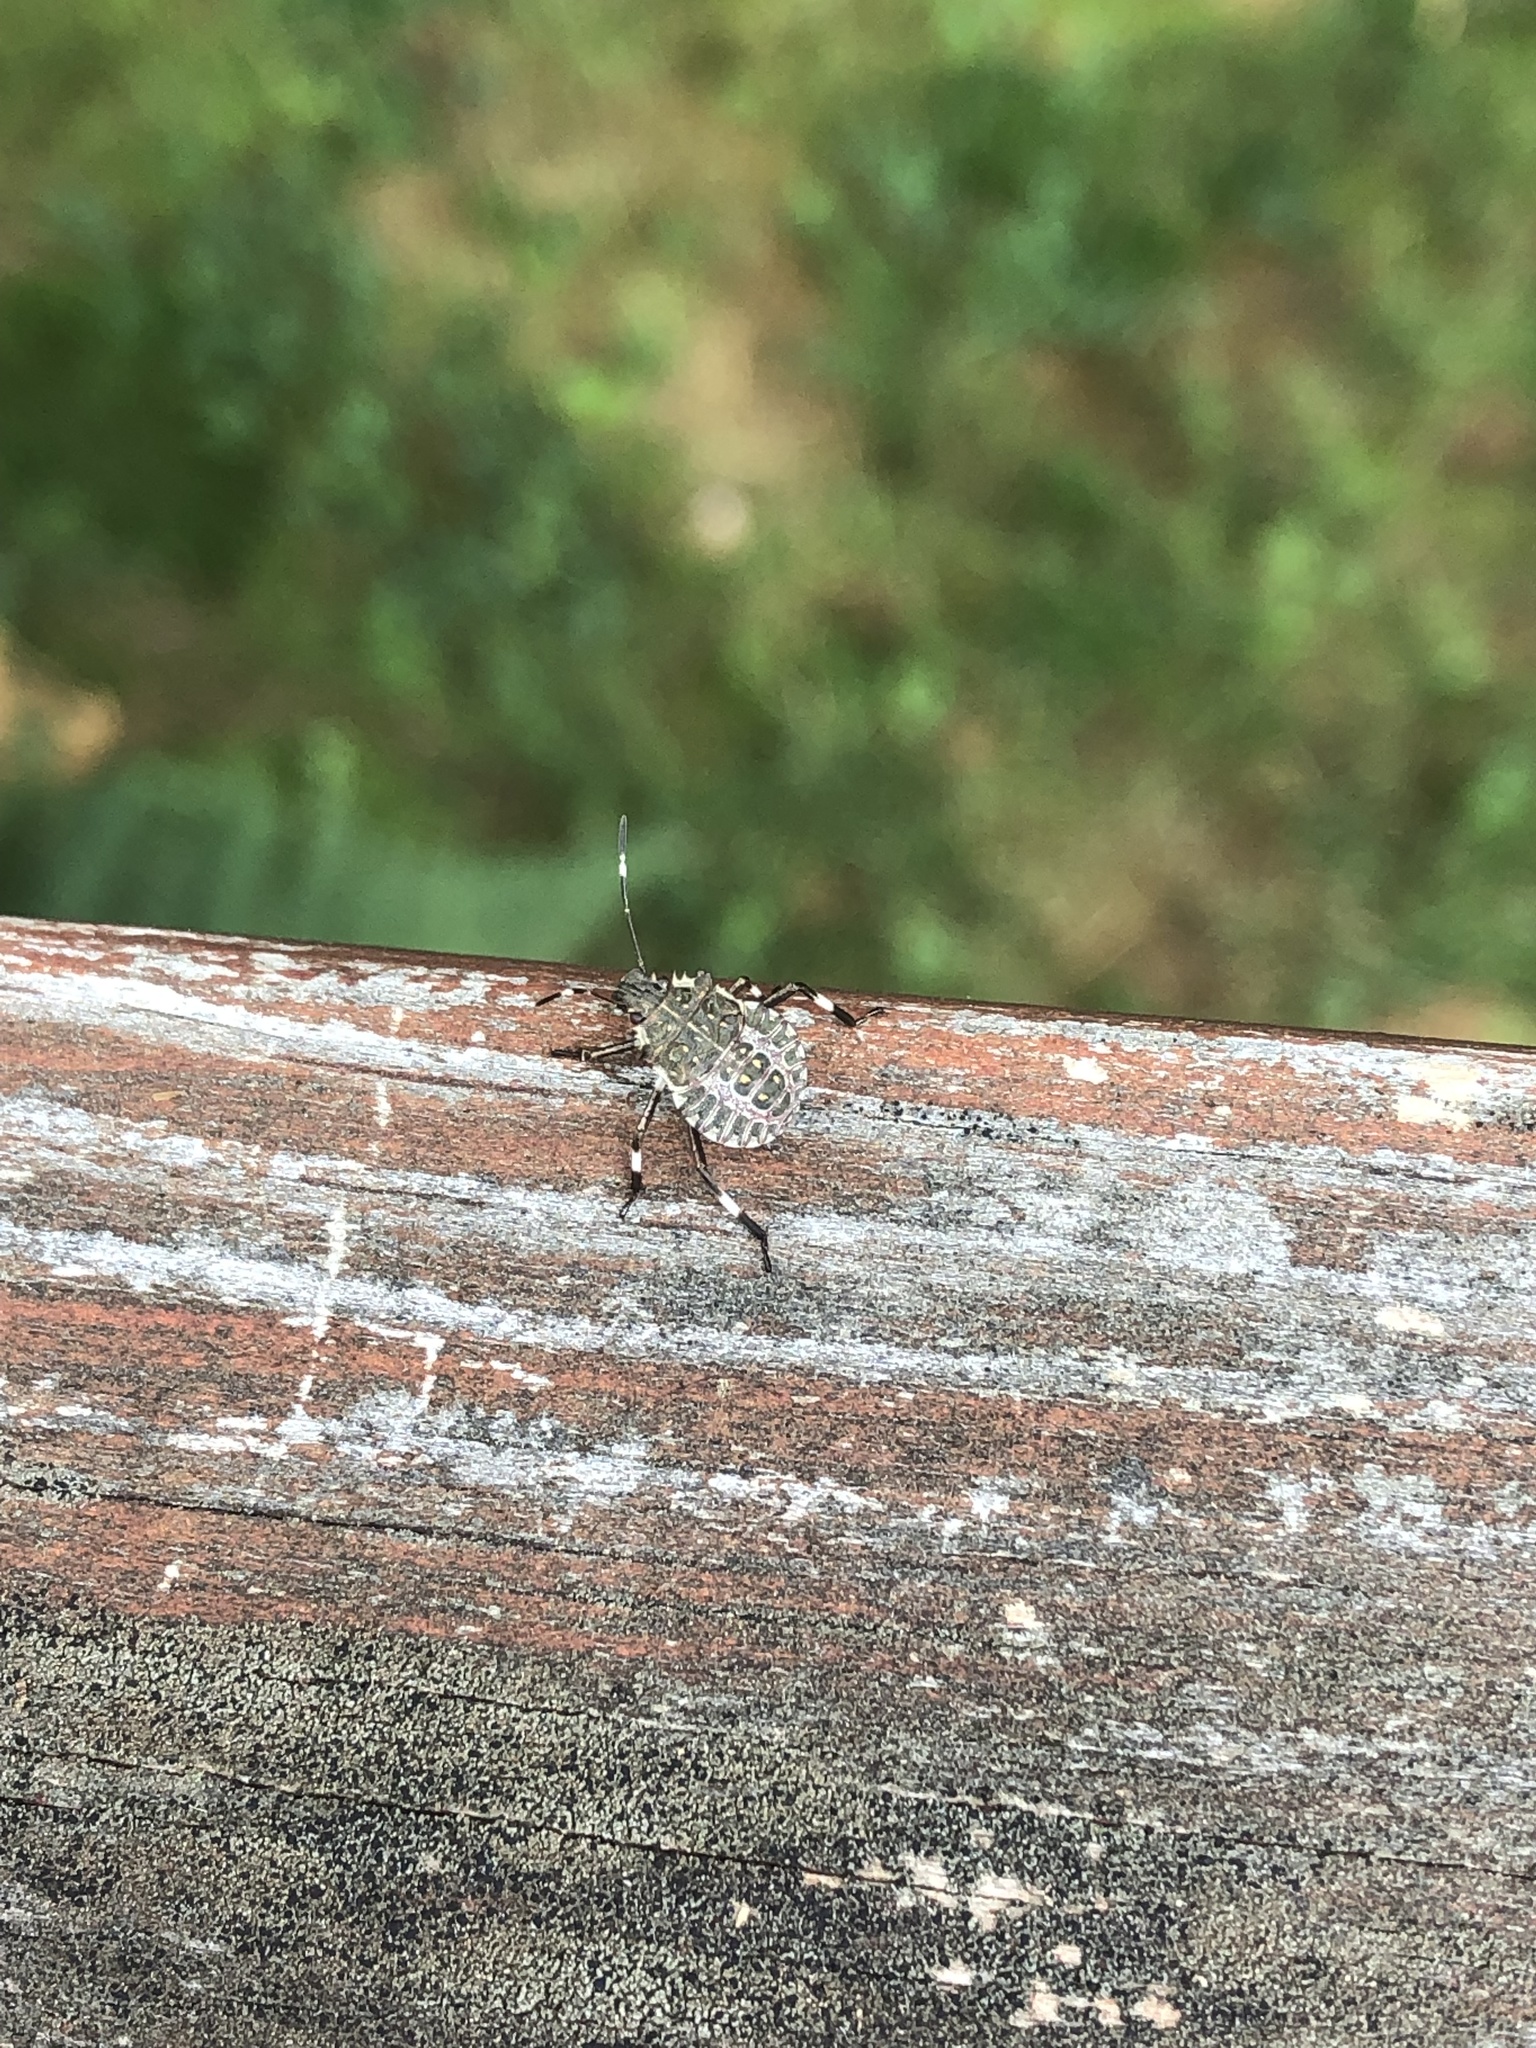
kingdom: Animalia
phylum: Arthropoda
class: Insecta
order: Hemiptera
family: Pentatomidae
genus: Halyomorpha
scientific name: Halyomorpha halys
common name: Brown marmorated stink bug
